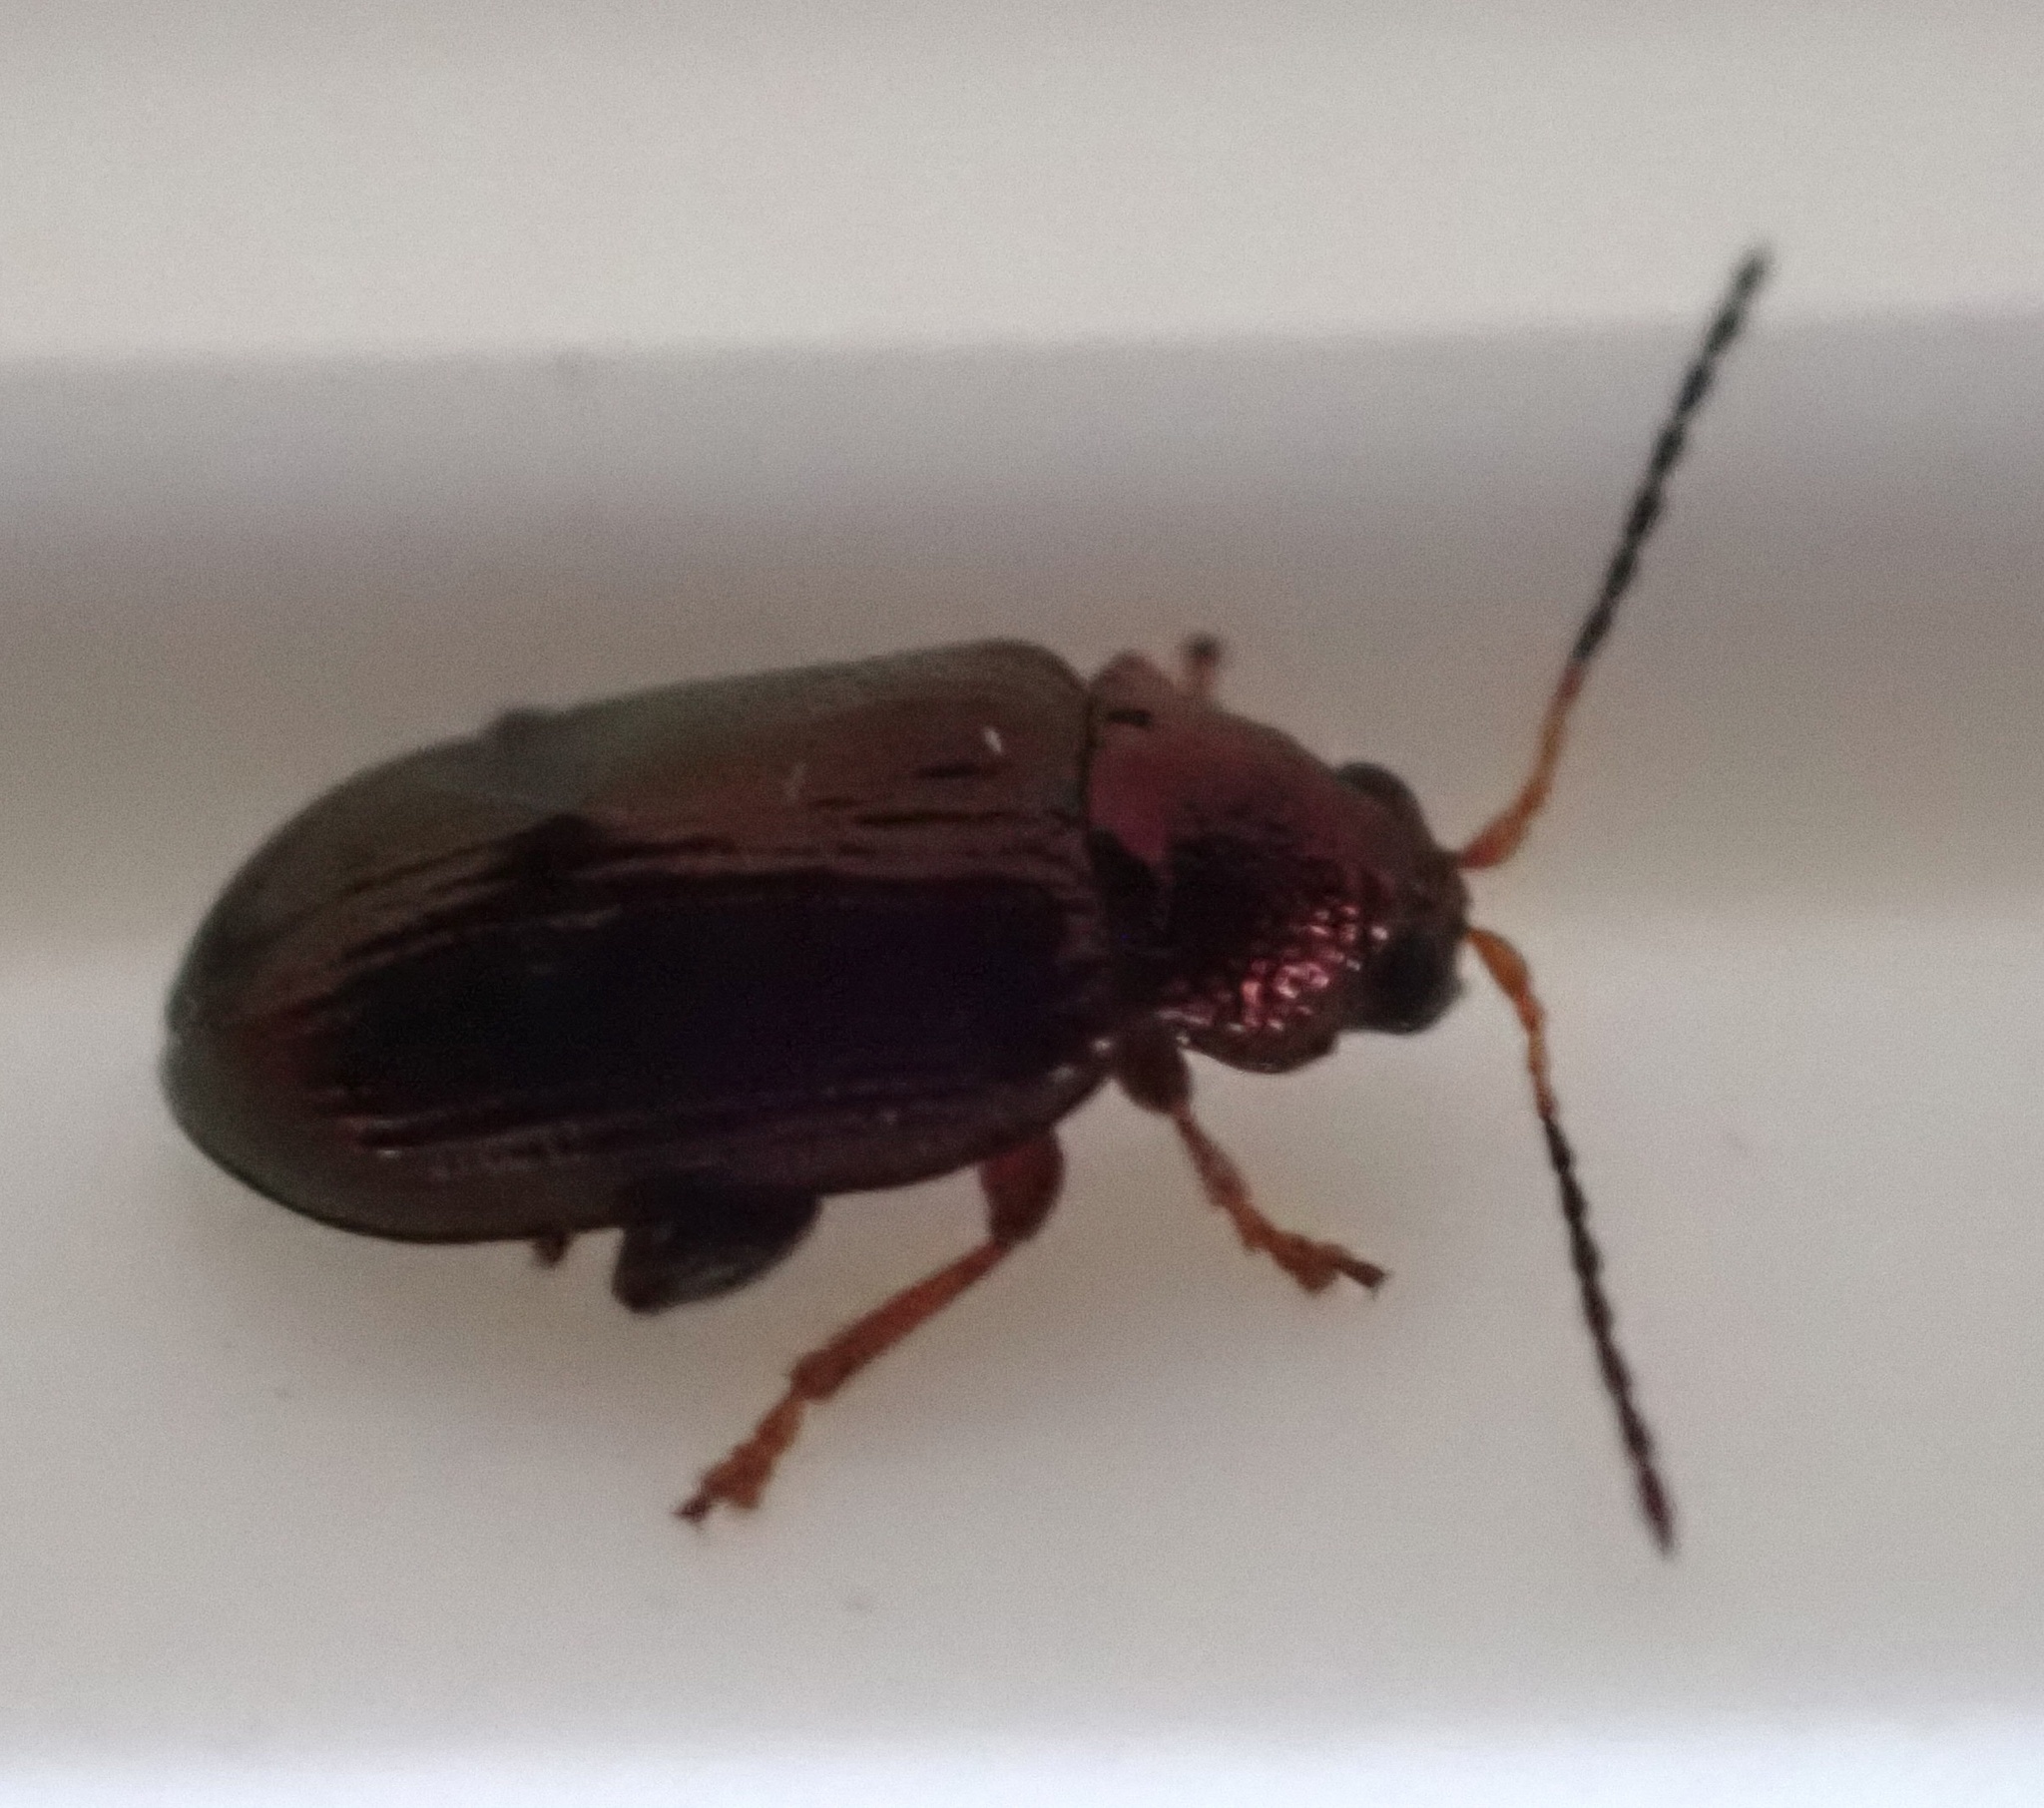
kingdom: Animalia
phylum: Arthropoda
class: Insecta
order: Coleoptera
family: Chrysomelidae
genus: Crepidodera
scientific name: Crepidodera aurata
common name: Willow flea beetle
